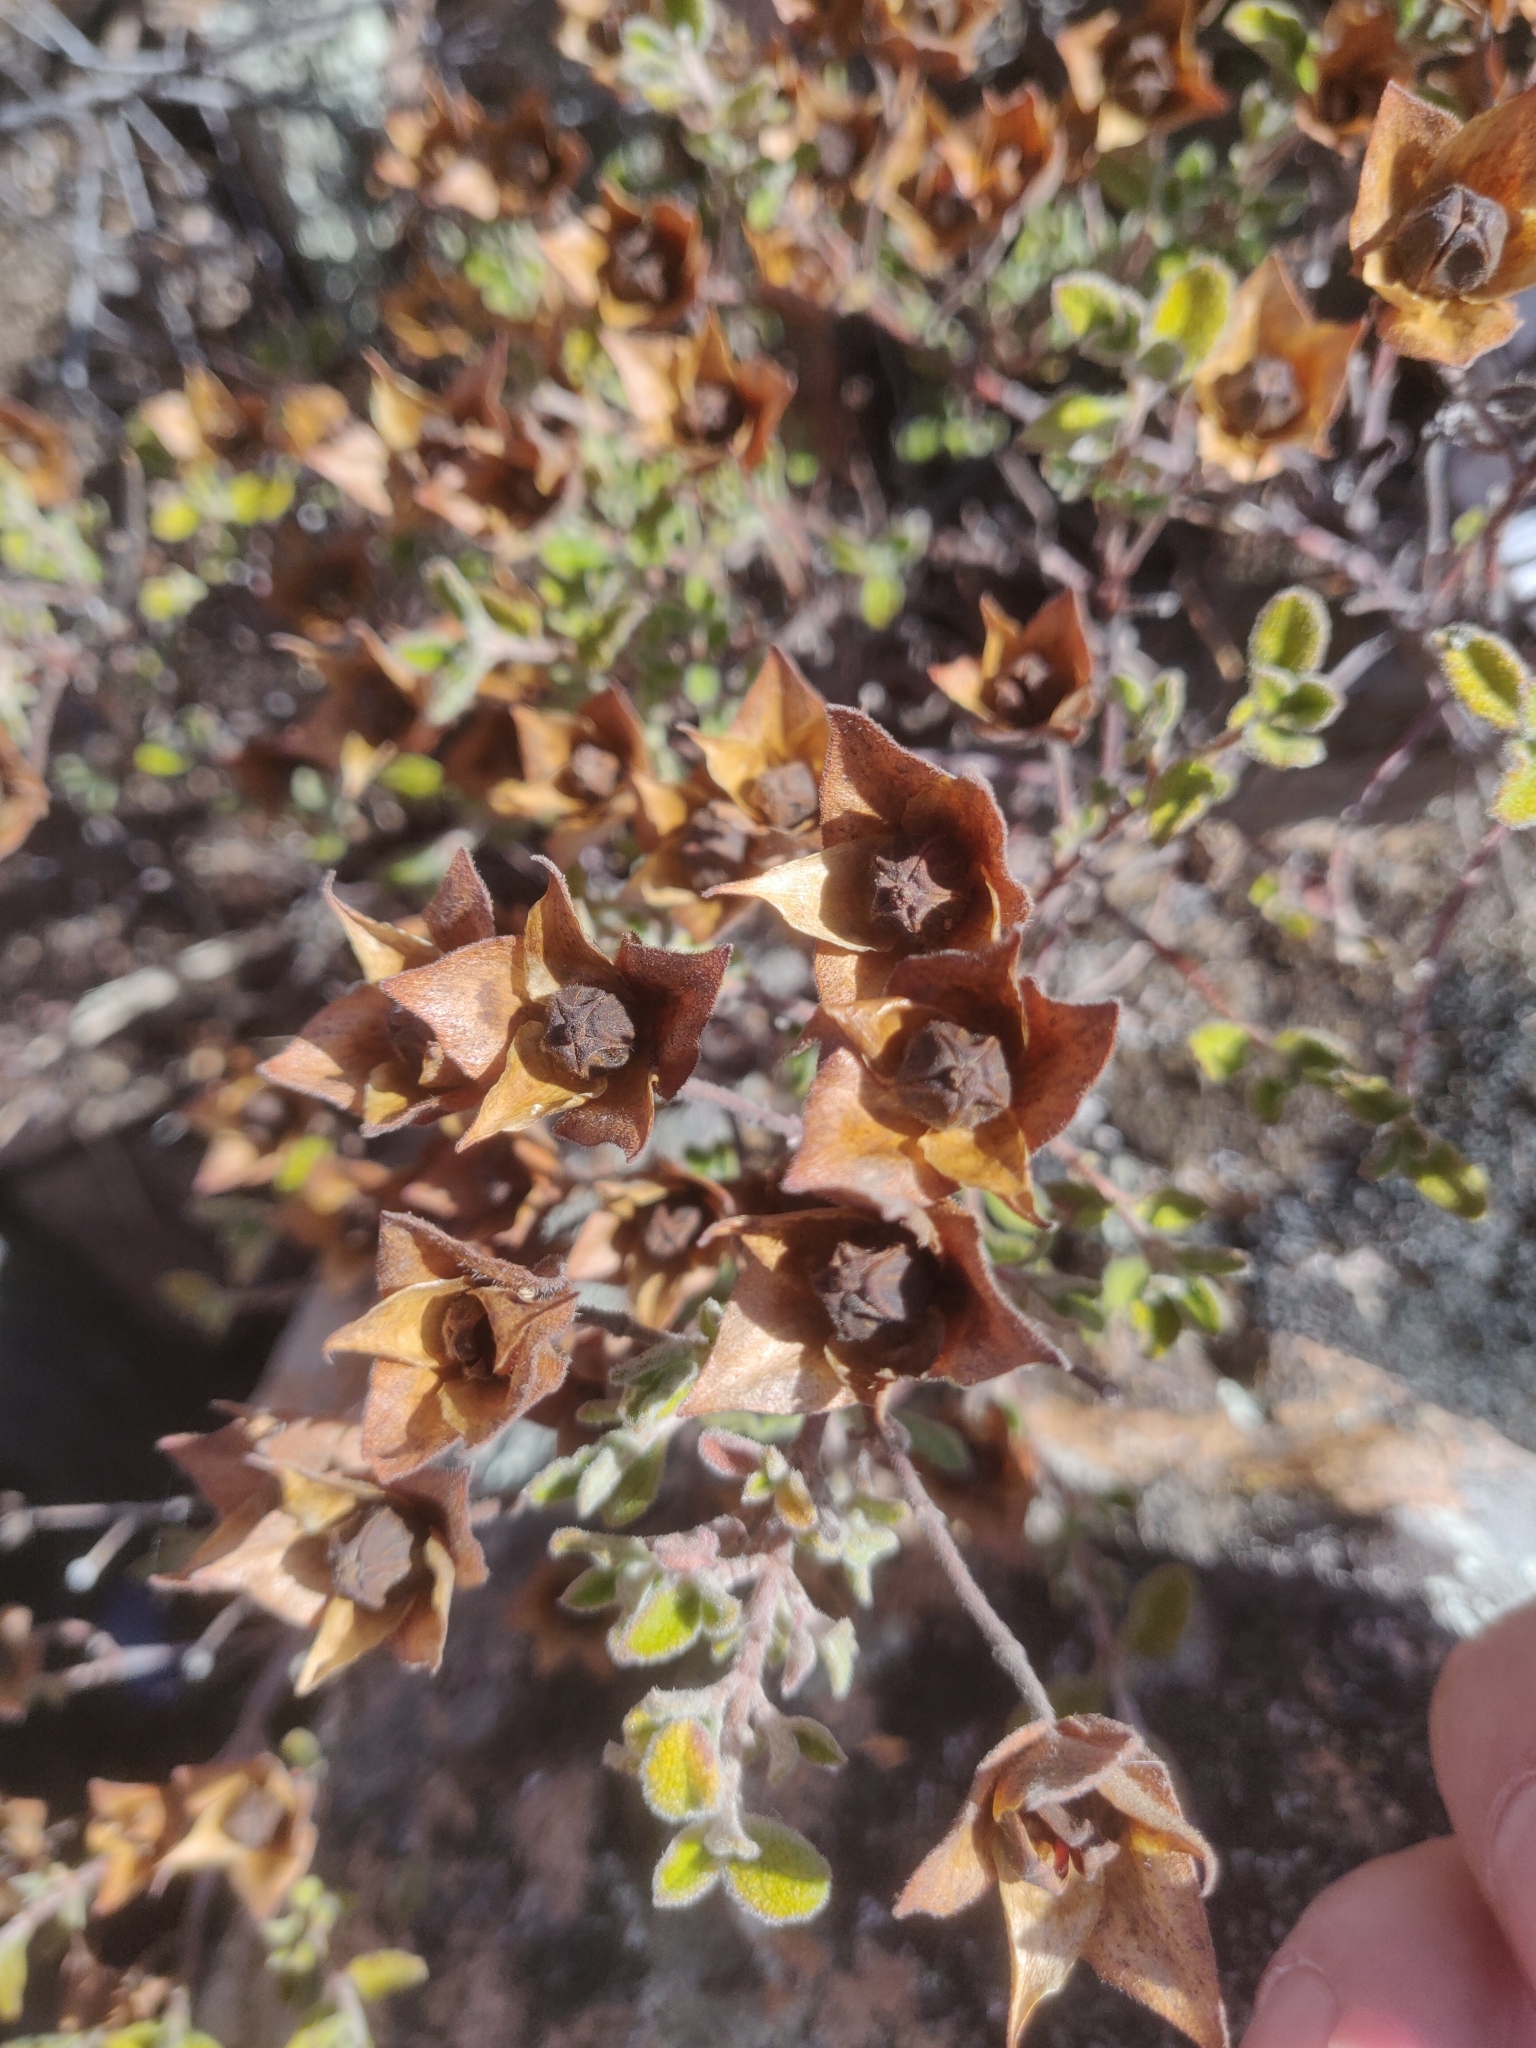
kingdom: Plantae
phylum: Tracheophyta
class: Magnoliopsida
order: Malvales
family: Cistaceae
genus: Cistus
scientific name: Cistus salviifolius
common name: Salvia cistus
